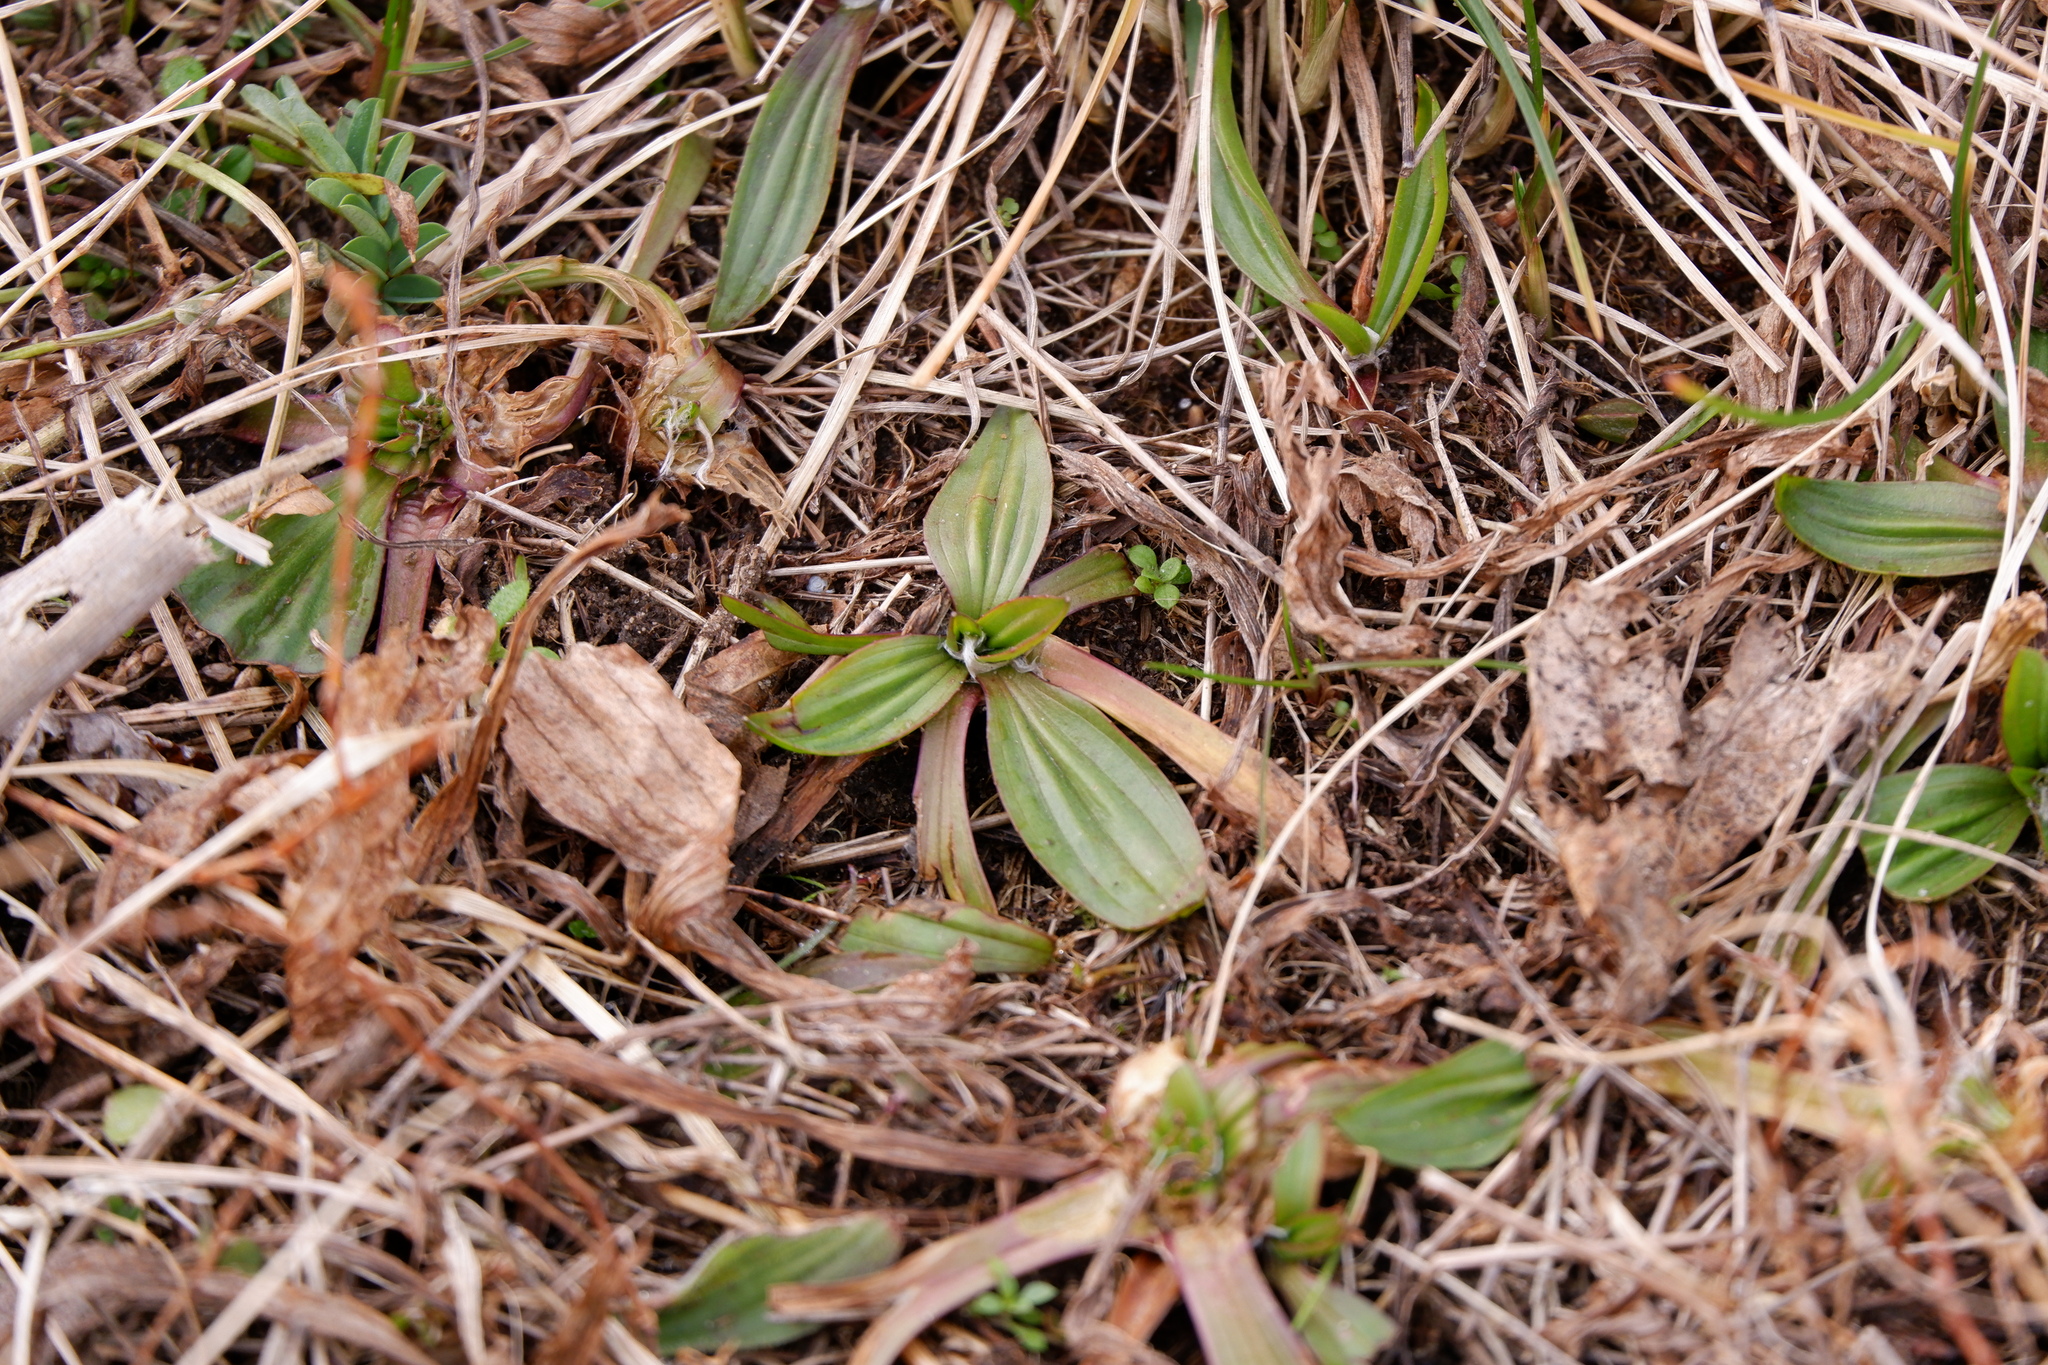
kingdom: Plantae
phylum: Tracheophyta
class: Magnoliopsida
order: Lamiales
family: Plantaginaceae
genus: Plantago
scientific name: Plantago lanceolata
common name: Ribwort plantain
